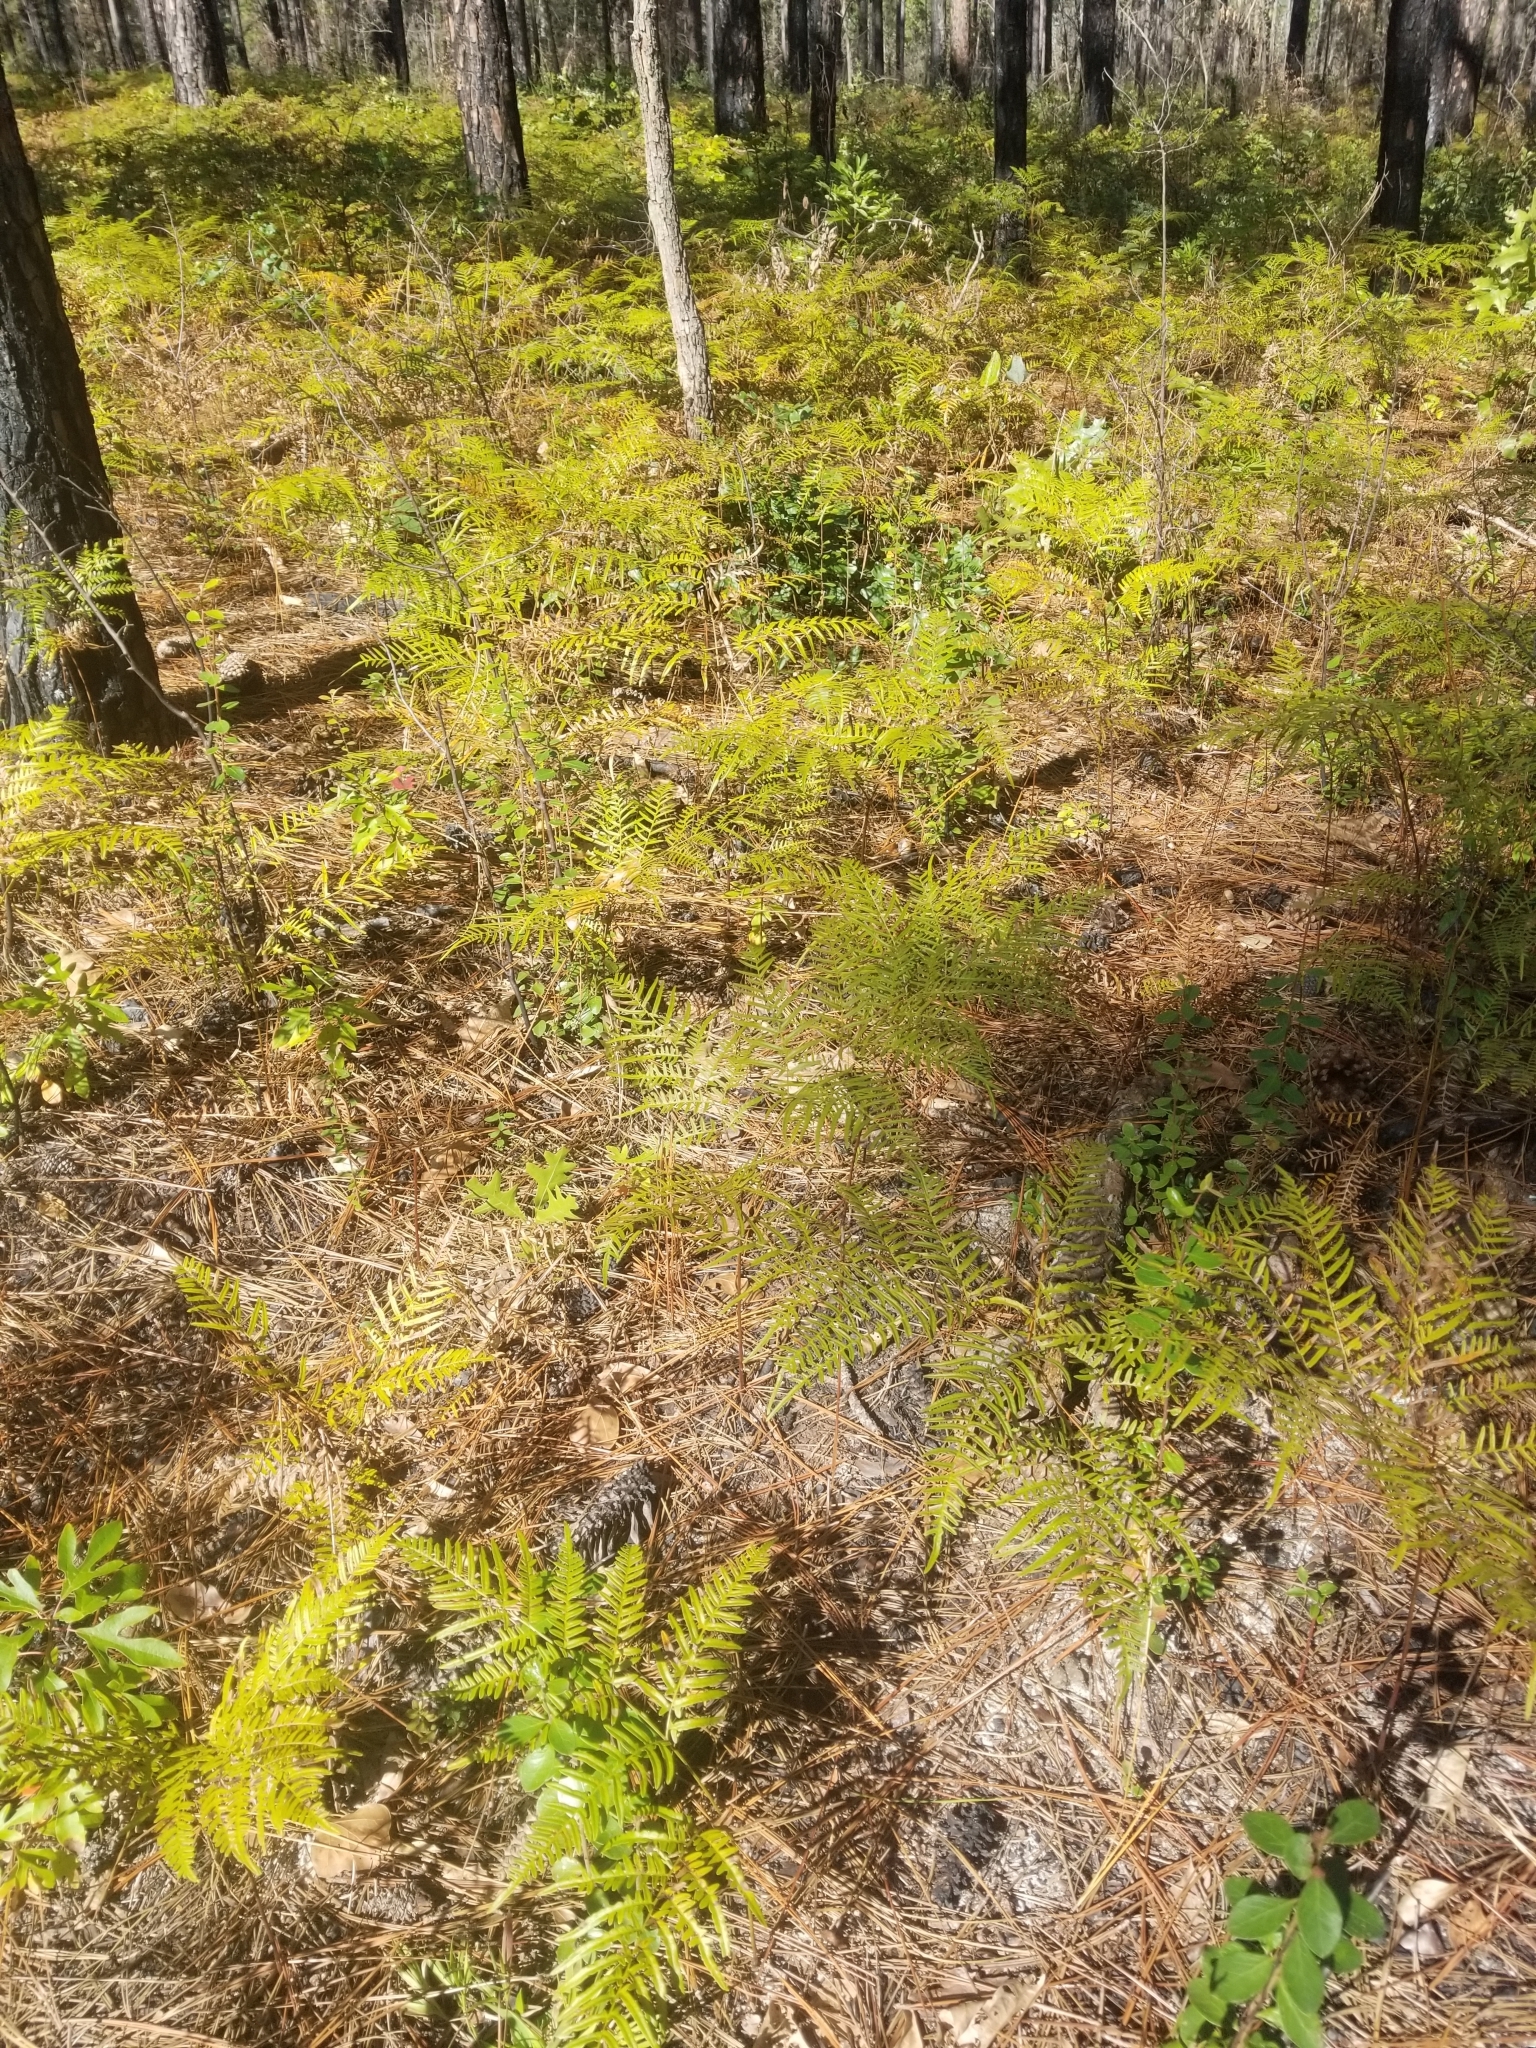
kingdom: Plantae
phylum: Tracheophyta
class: Polypodiopsida
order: Polypodiales
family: Dennstaedtiaceae
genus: Pteridium
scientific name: Pteridium
